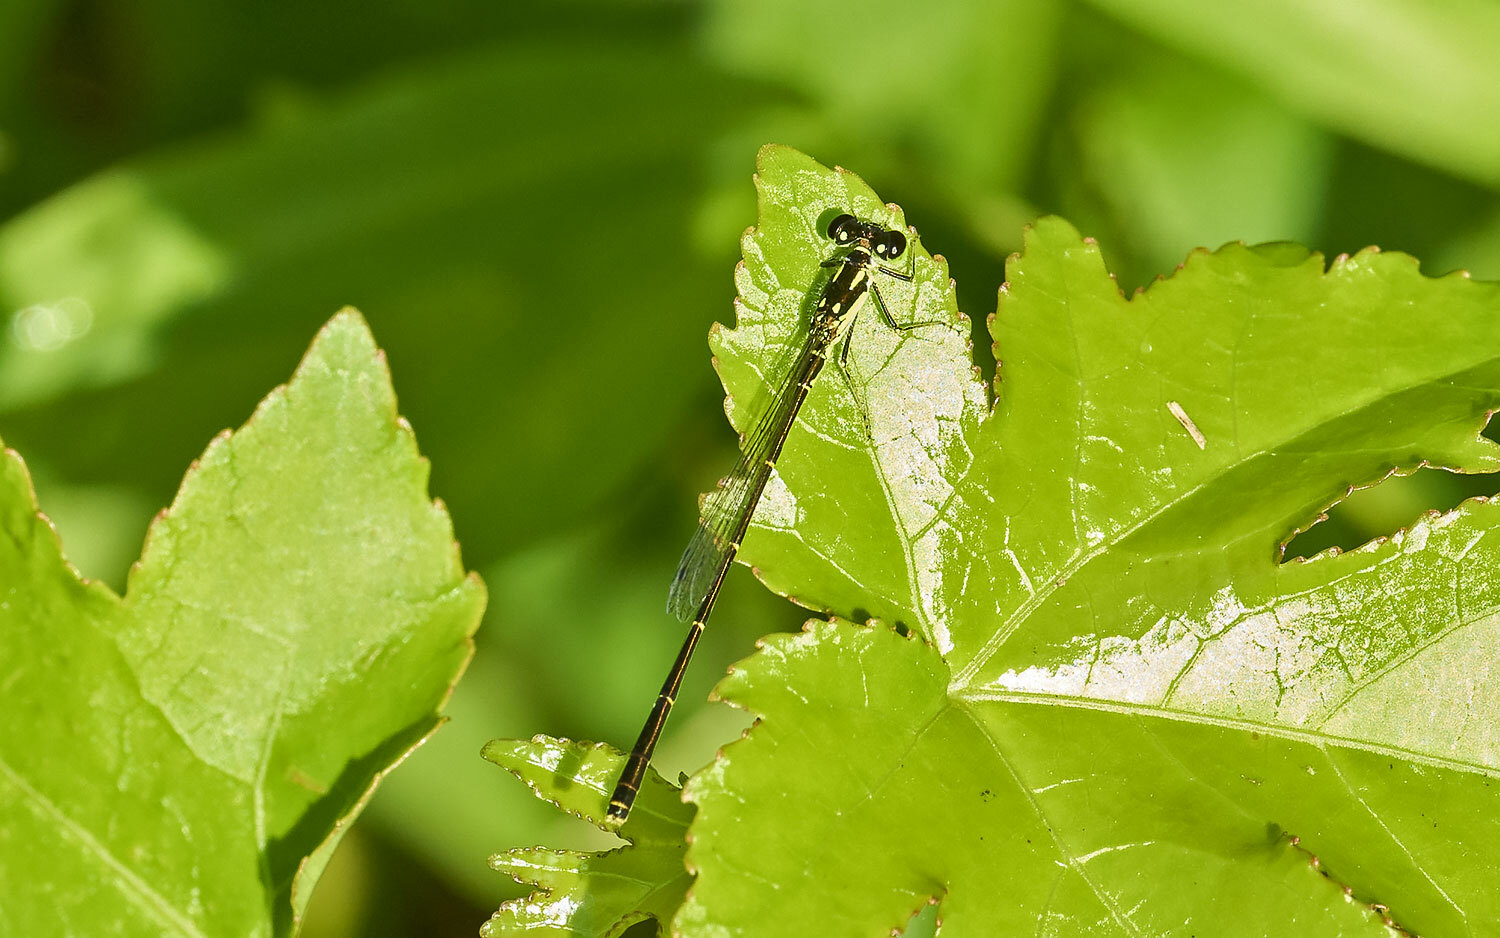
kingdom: Animalia
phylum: Arthropoda
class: Insecta
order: Odonata
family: Coenagrionidae
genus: Ischnura
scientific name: Ischnura posita
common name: Fragile forktail
